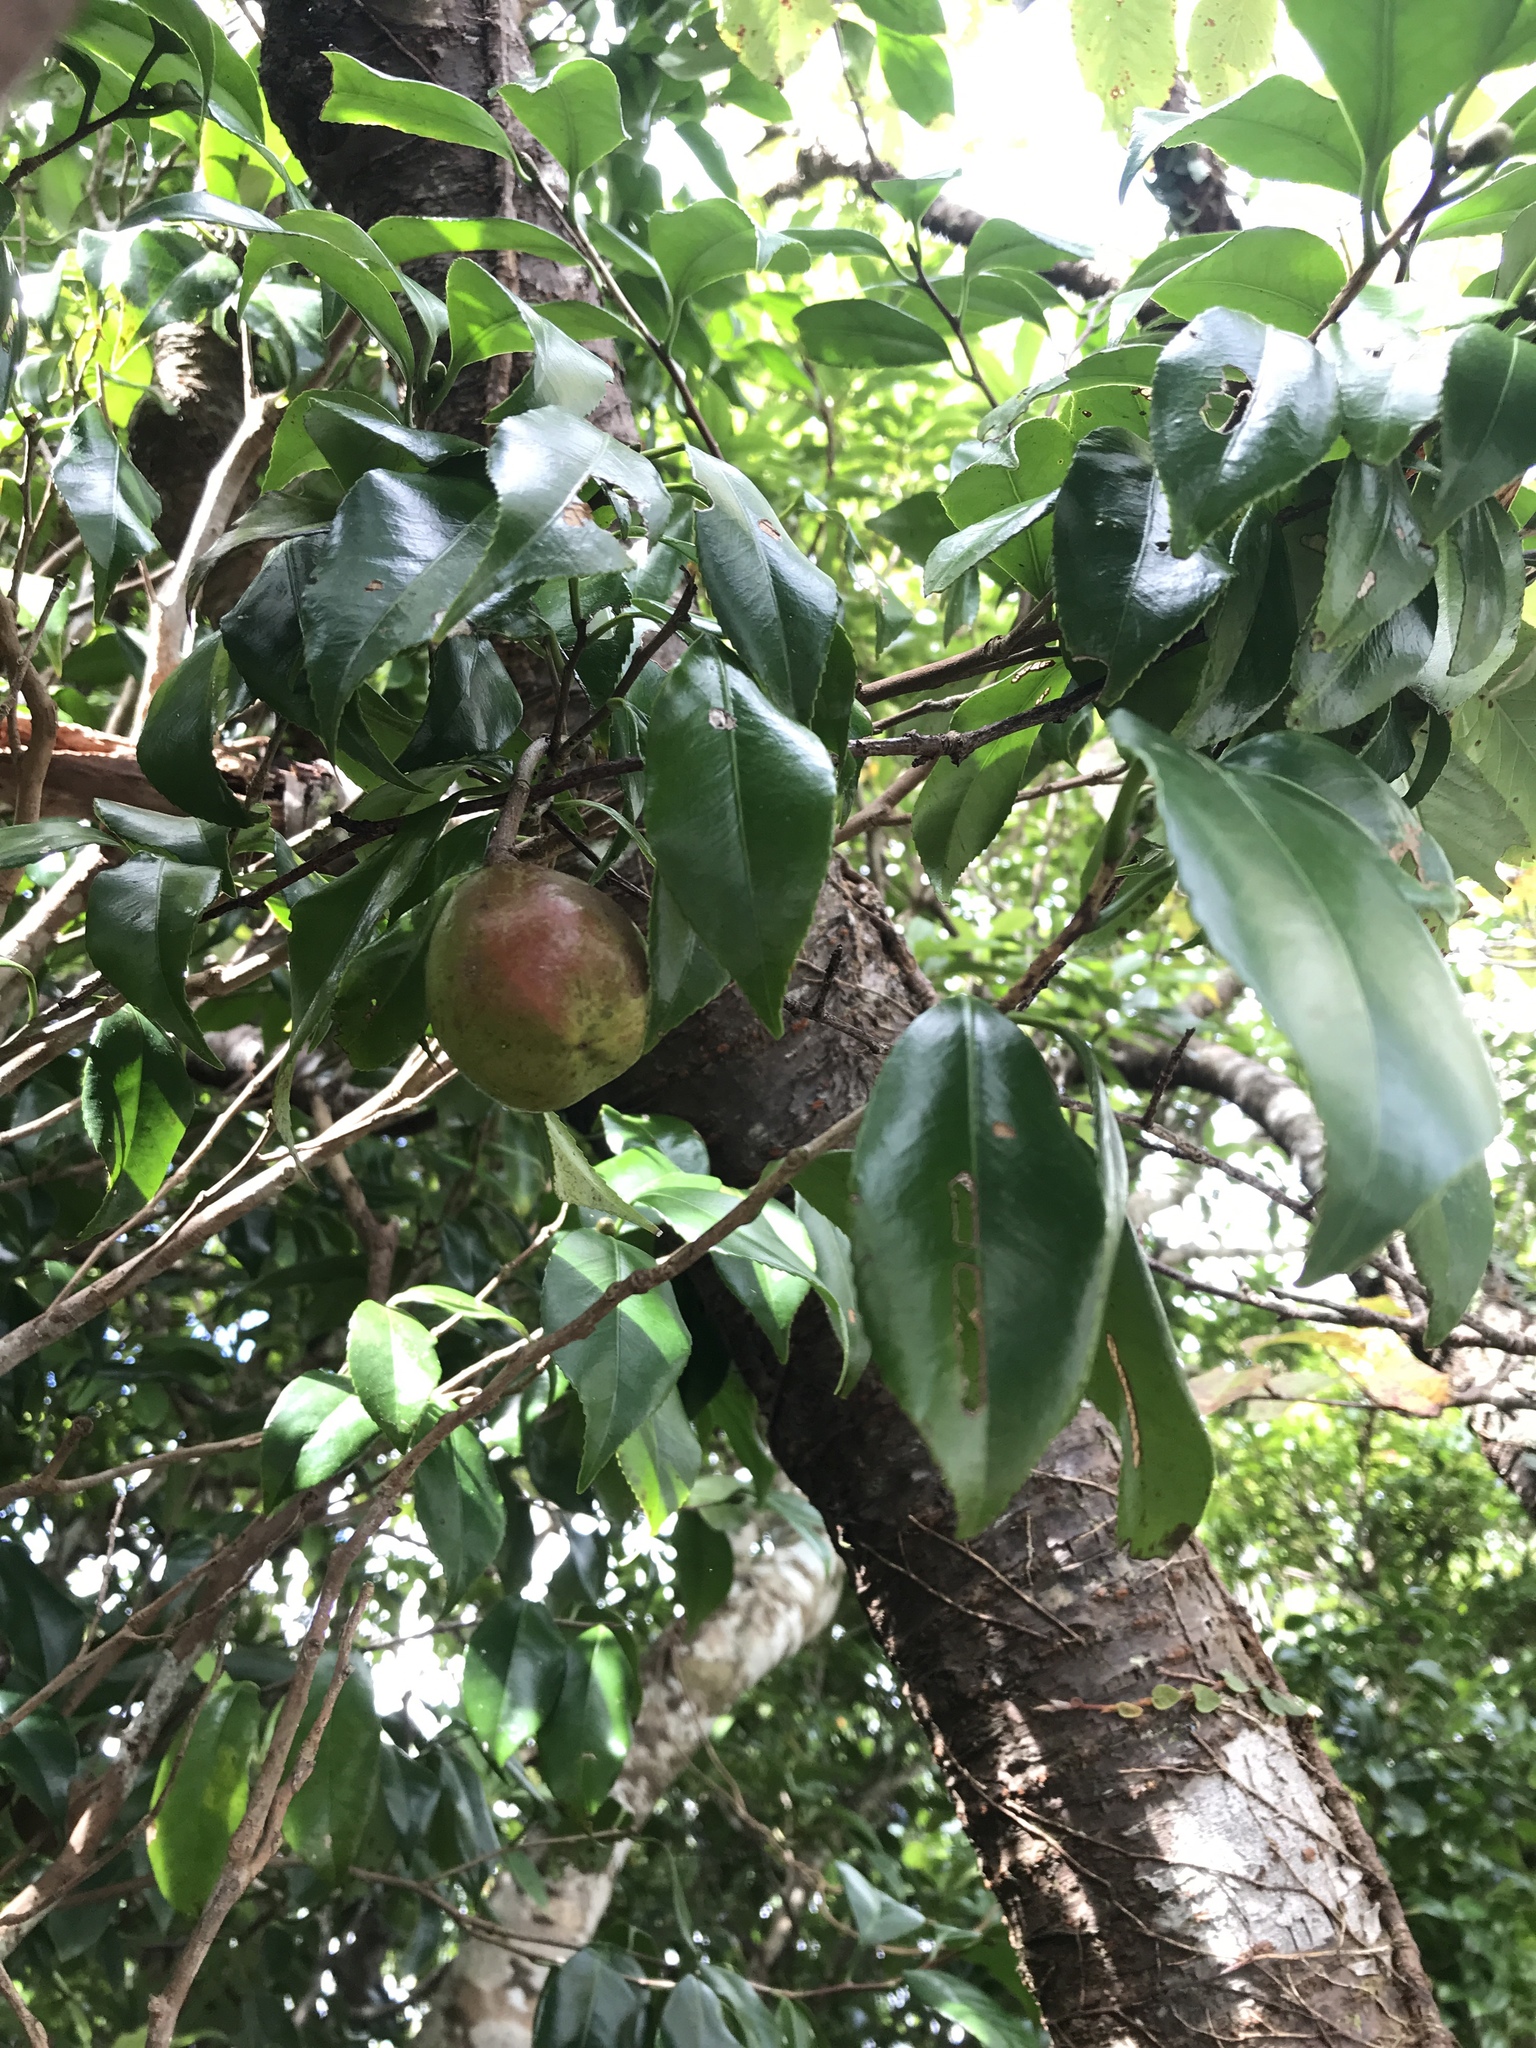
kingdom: Plantae
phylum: Tracheophyta
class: Magnoliopsida
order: Ericales
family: Theaceae
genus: Camellia
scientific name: Camellia japonica
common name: Camellia
